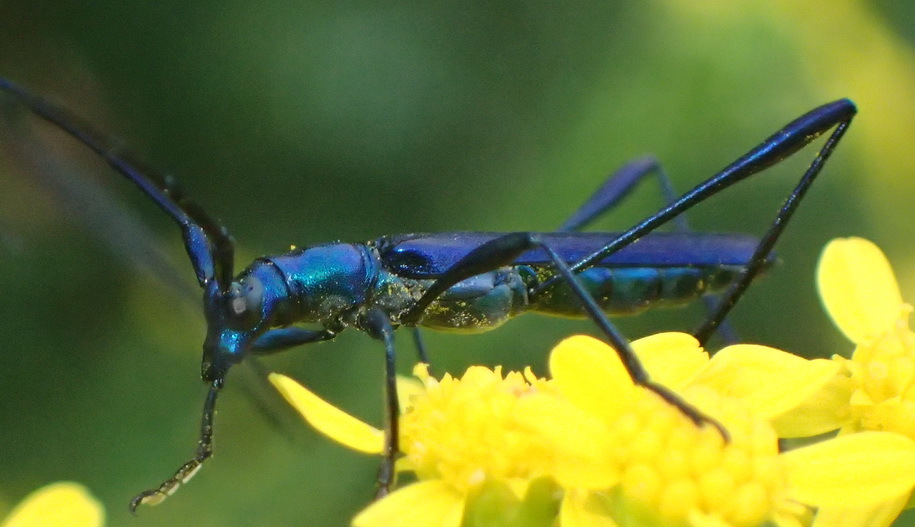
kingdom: Animalia
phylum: Arthropoda
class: Insecta
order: Coleoptera
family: Cerambycidae
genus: Promeces
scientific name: Promeces longipes
